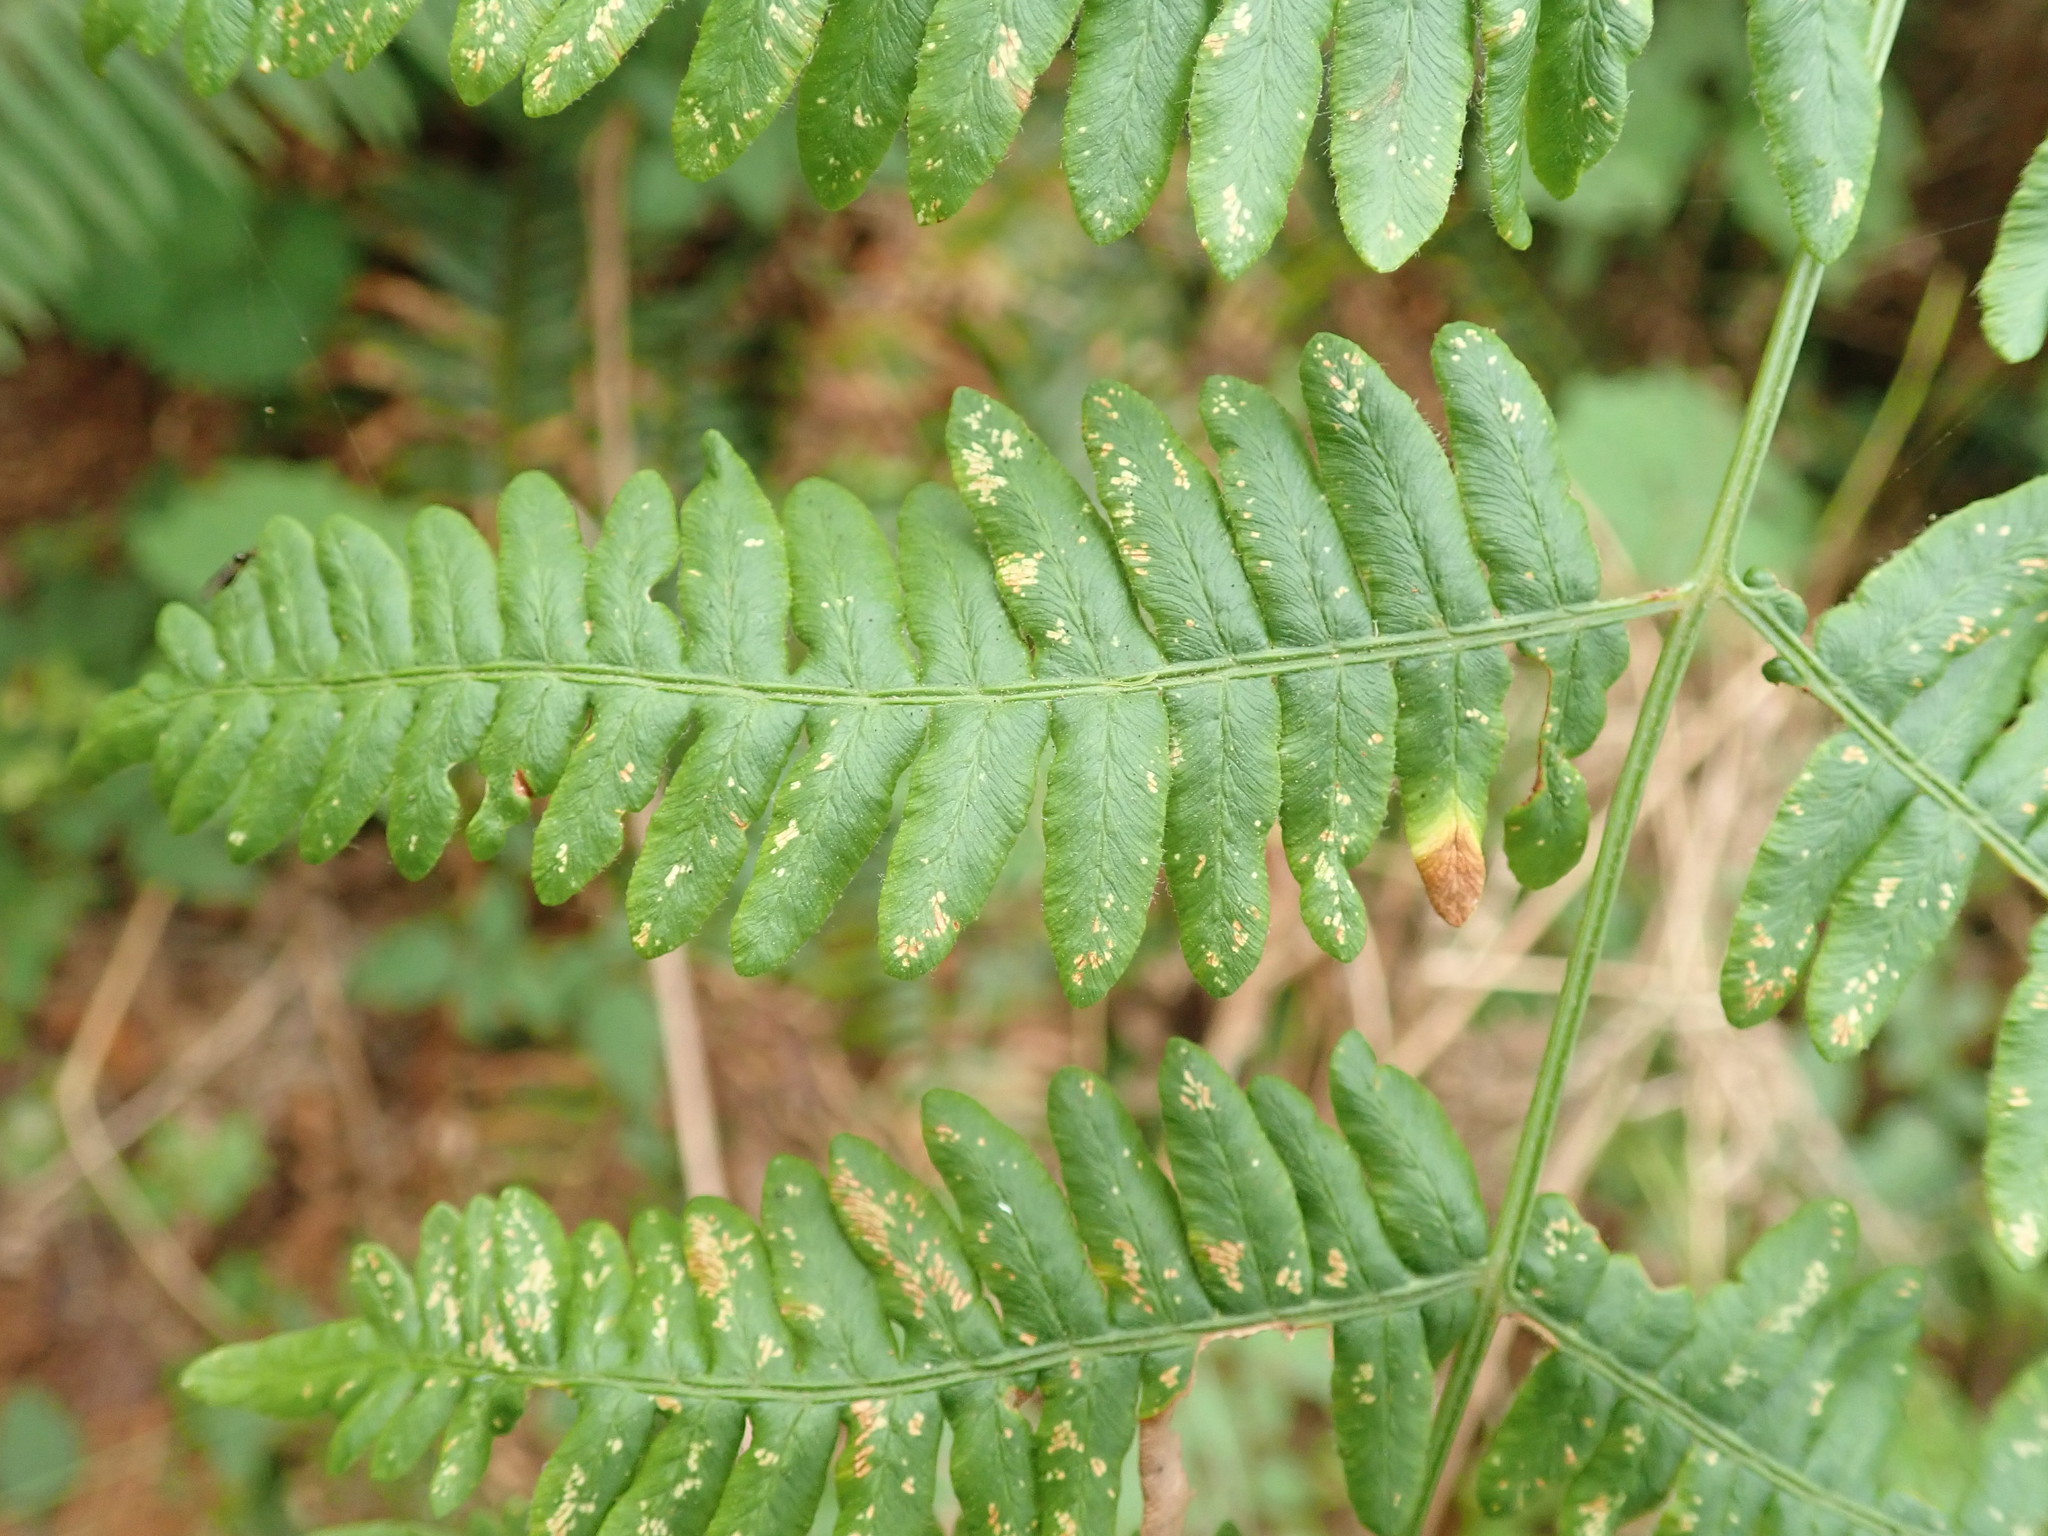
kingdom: Plantae
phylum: Tracheophyta
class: Polypodiopsida
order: Polypodiales
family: Dennstaedtiaceae
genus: Pteridium
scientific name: Pteridium aquilinum
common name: Bracken
